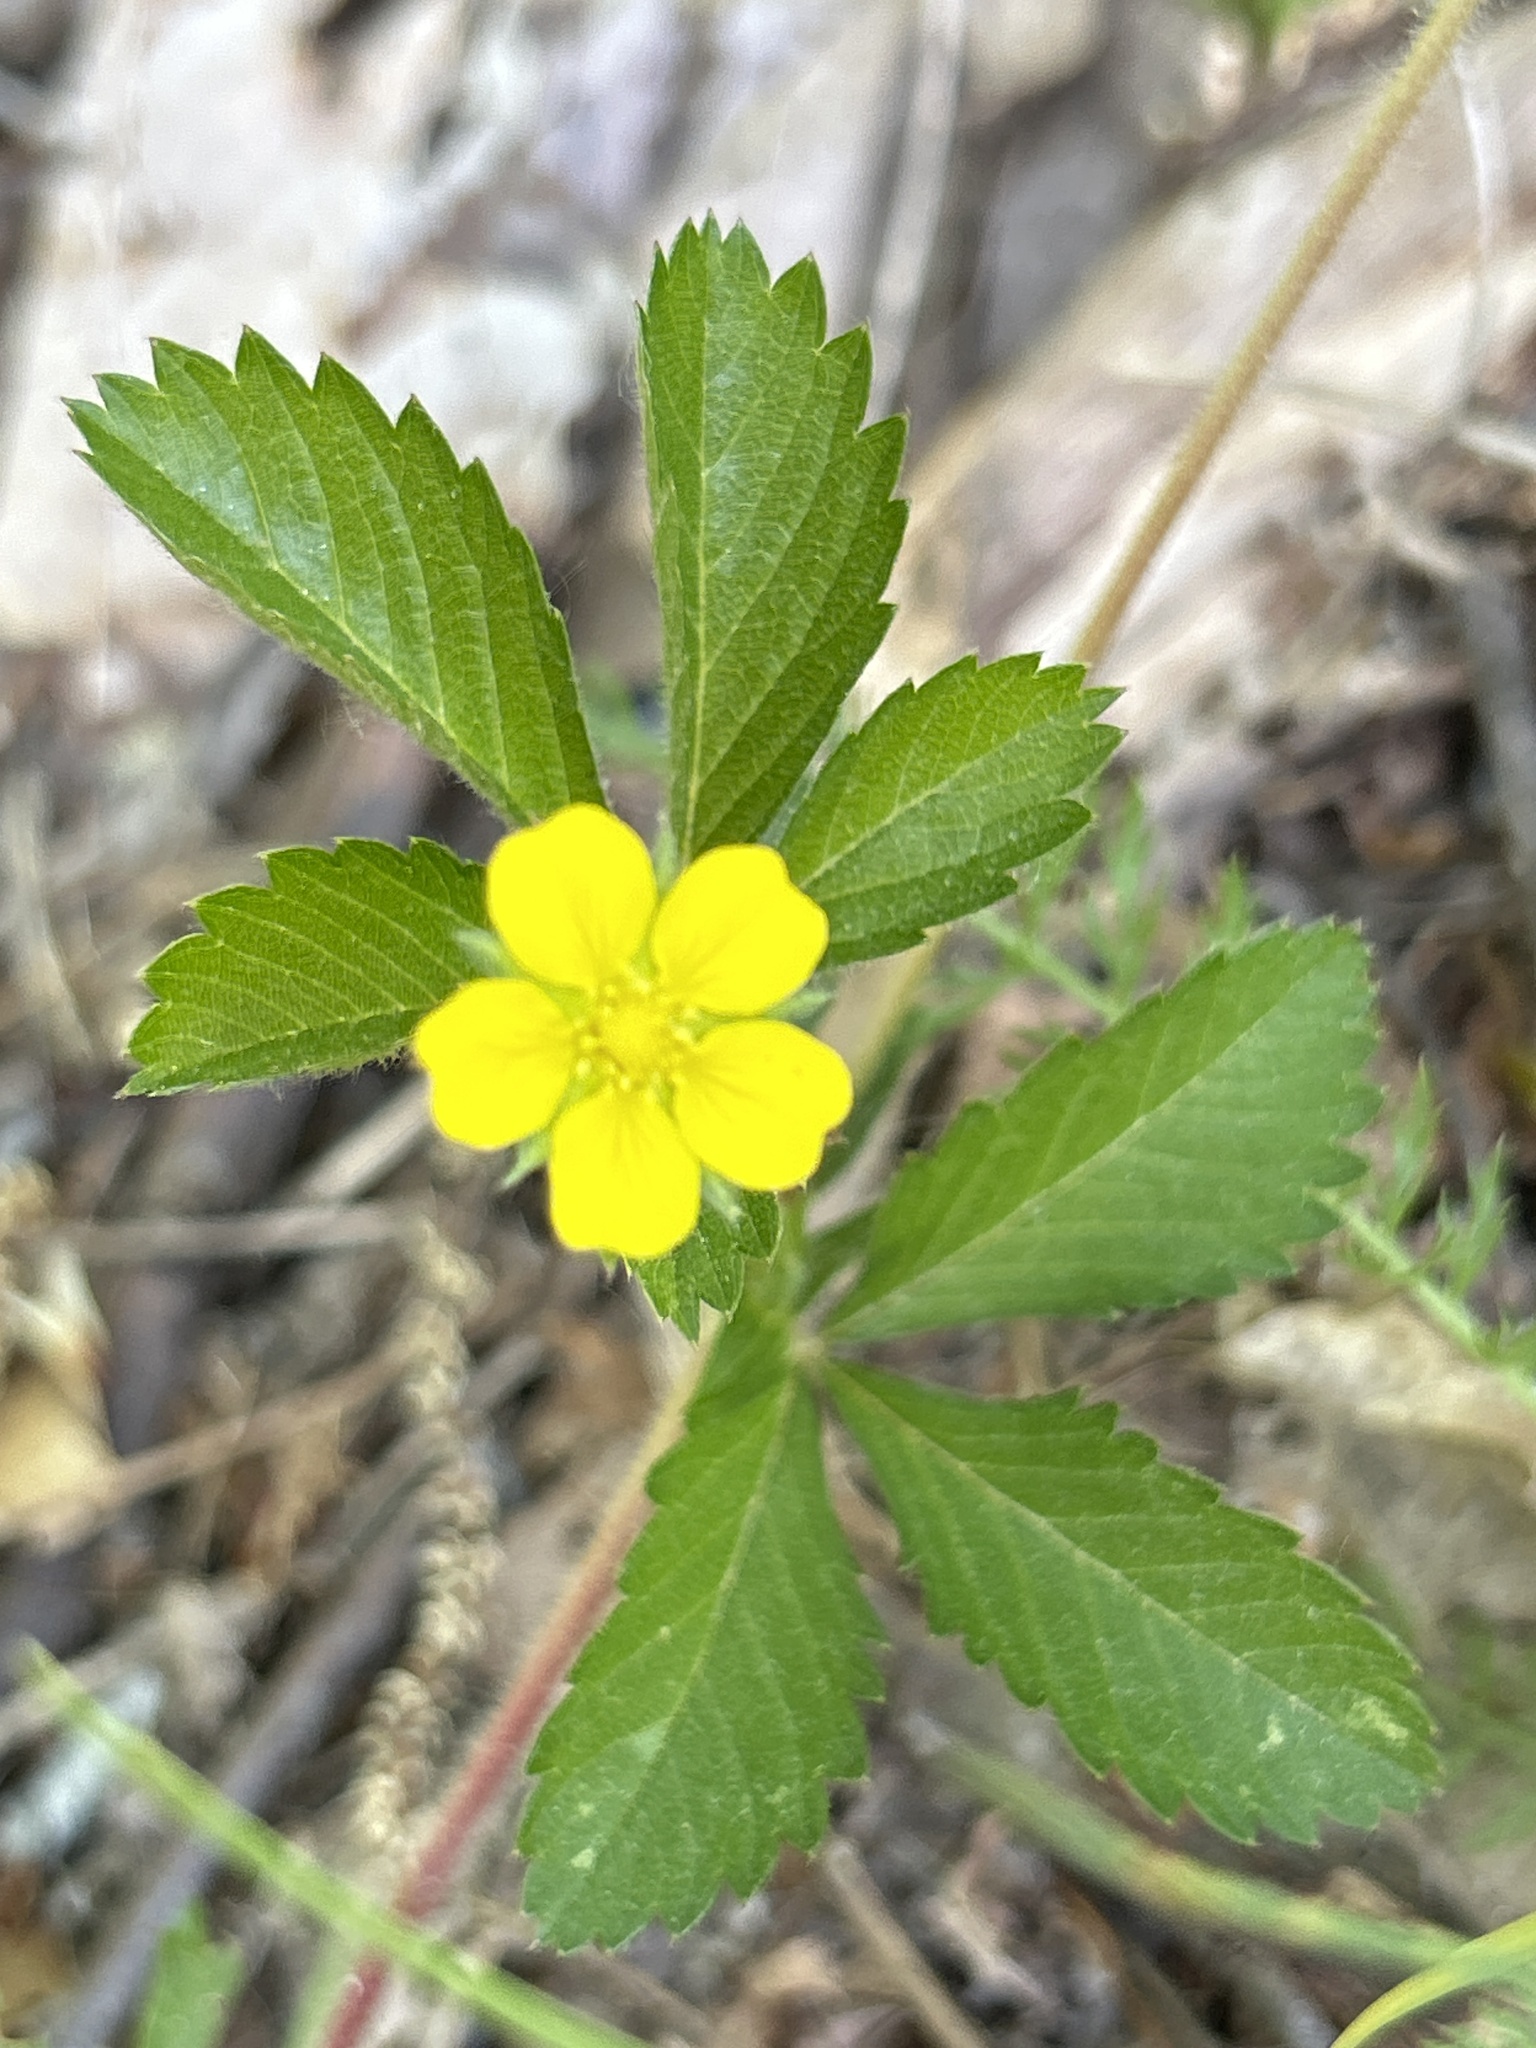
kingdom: Plantae
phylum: Tracheophyta
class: Magnoliopsida
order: Rosales
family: Rosaceae
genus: Potentilla
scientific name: Potentilla simplex
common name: Old field cinquefoil
